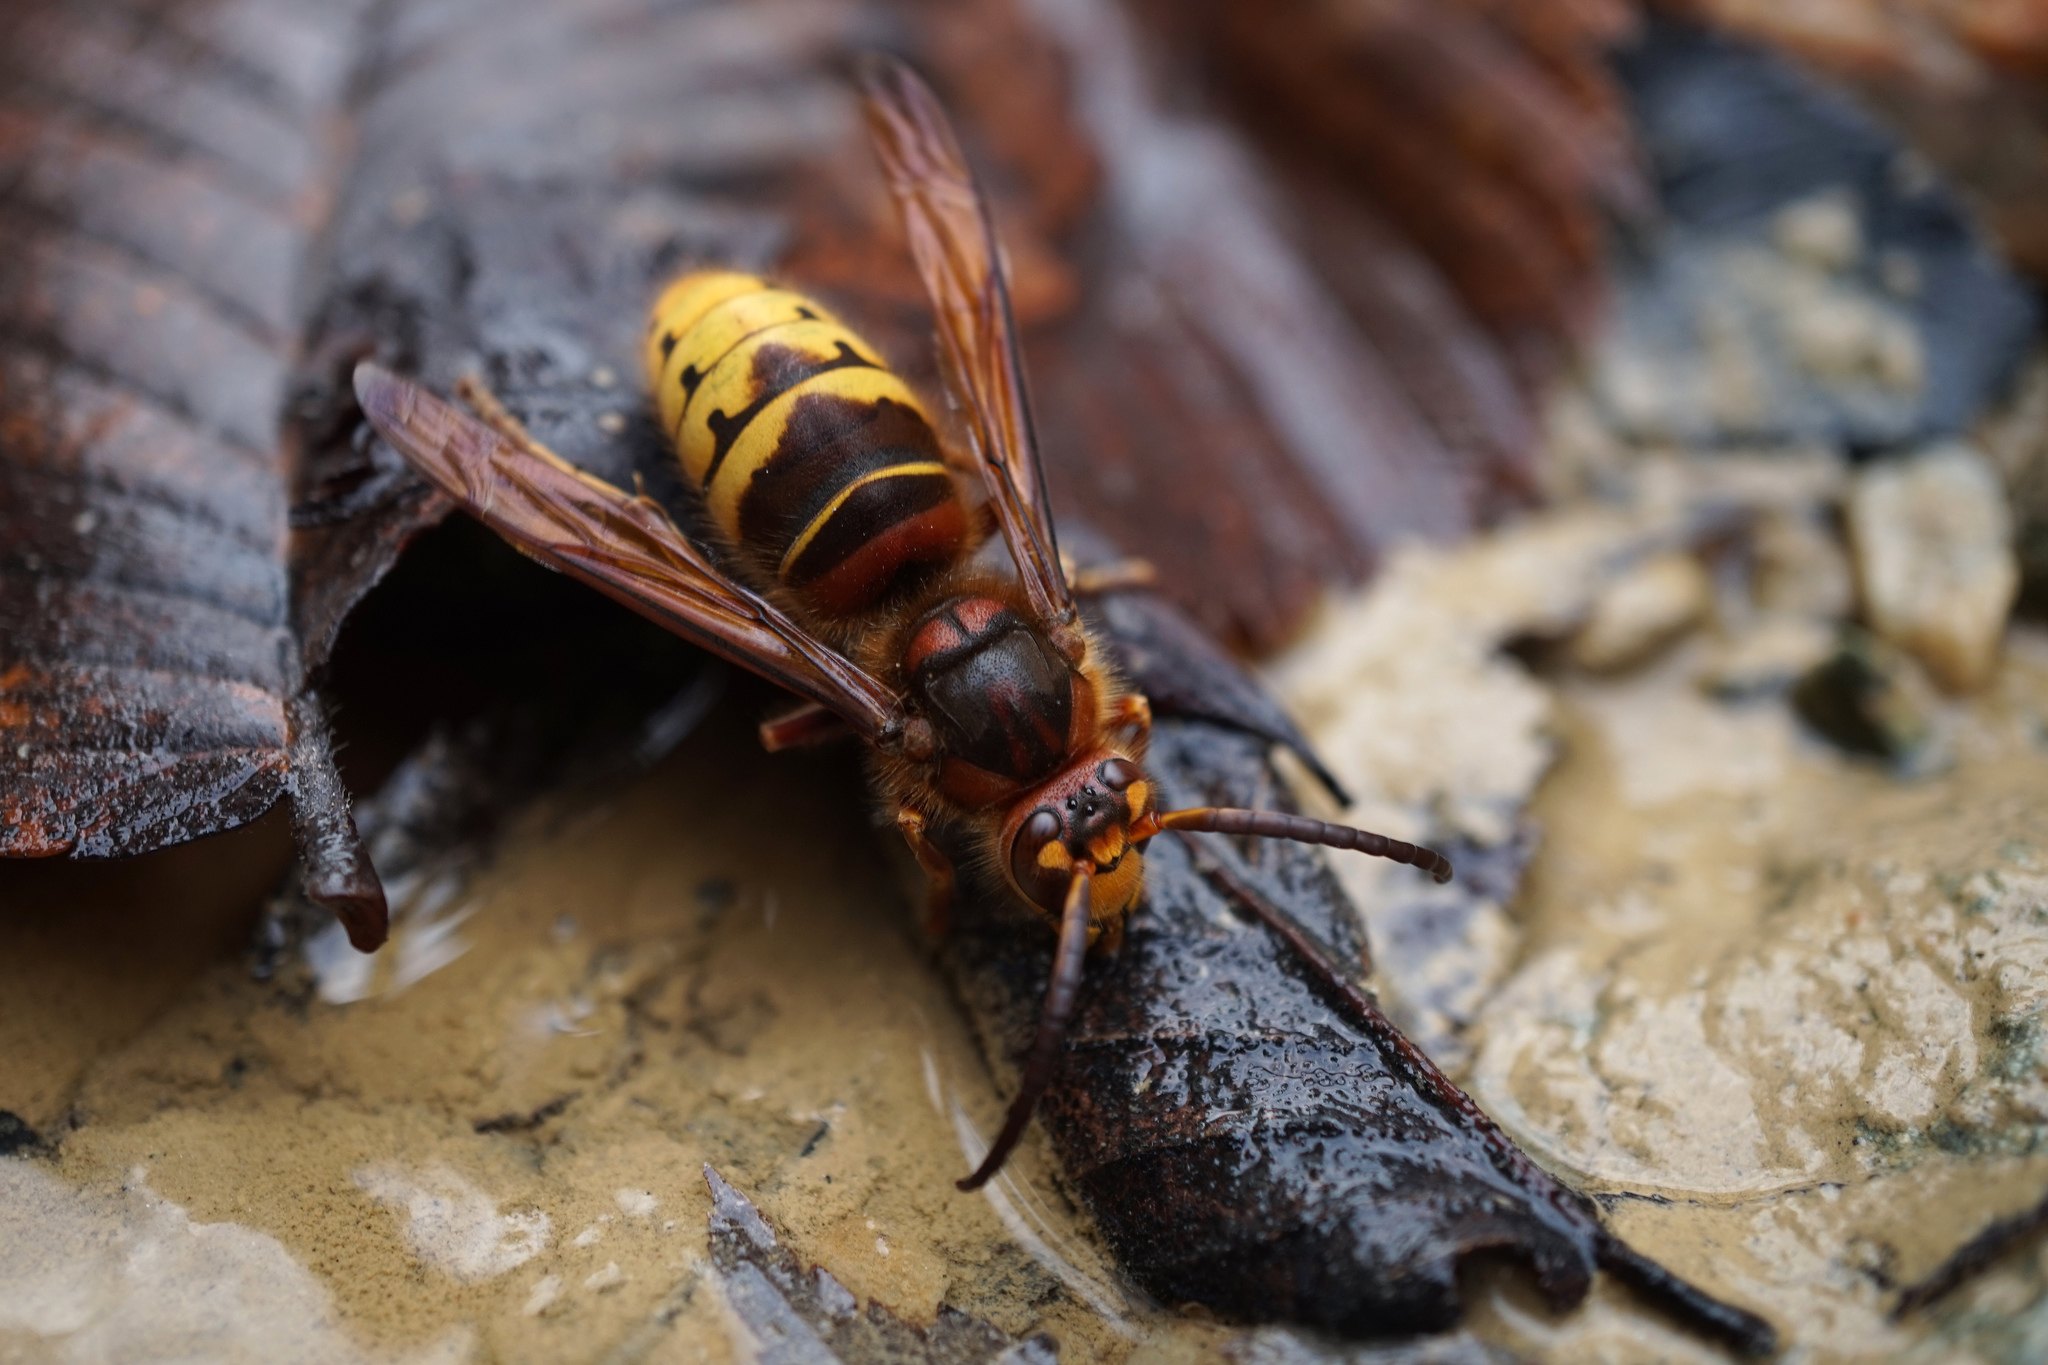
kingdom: Animalia
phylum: Arthropoda
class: Insecta
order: Hymenoptera
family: Vespidae
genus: Vespa
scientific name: Vespa crabro
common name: Hornet
